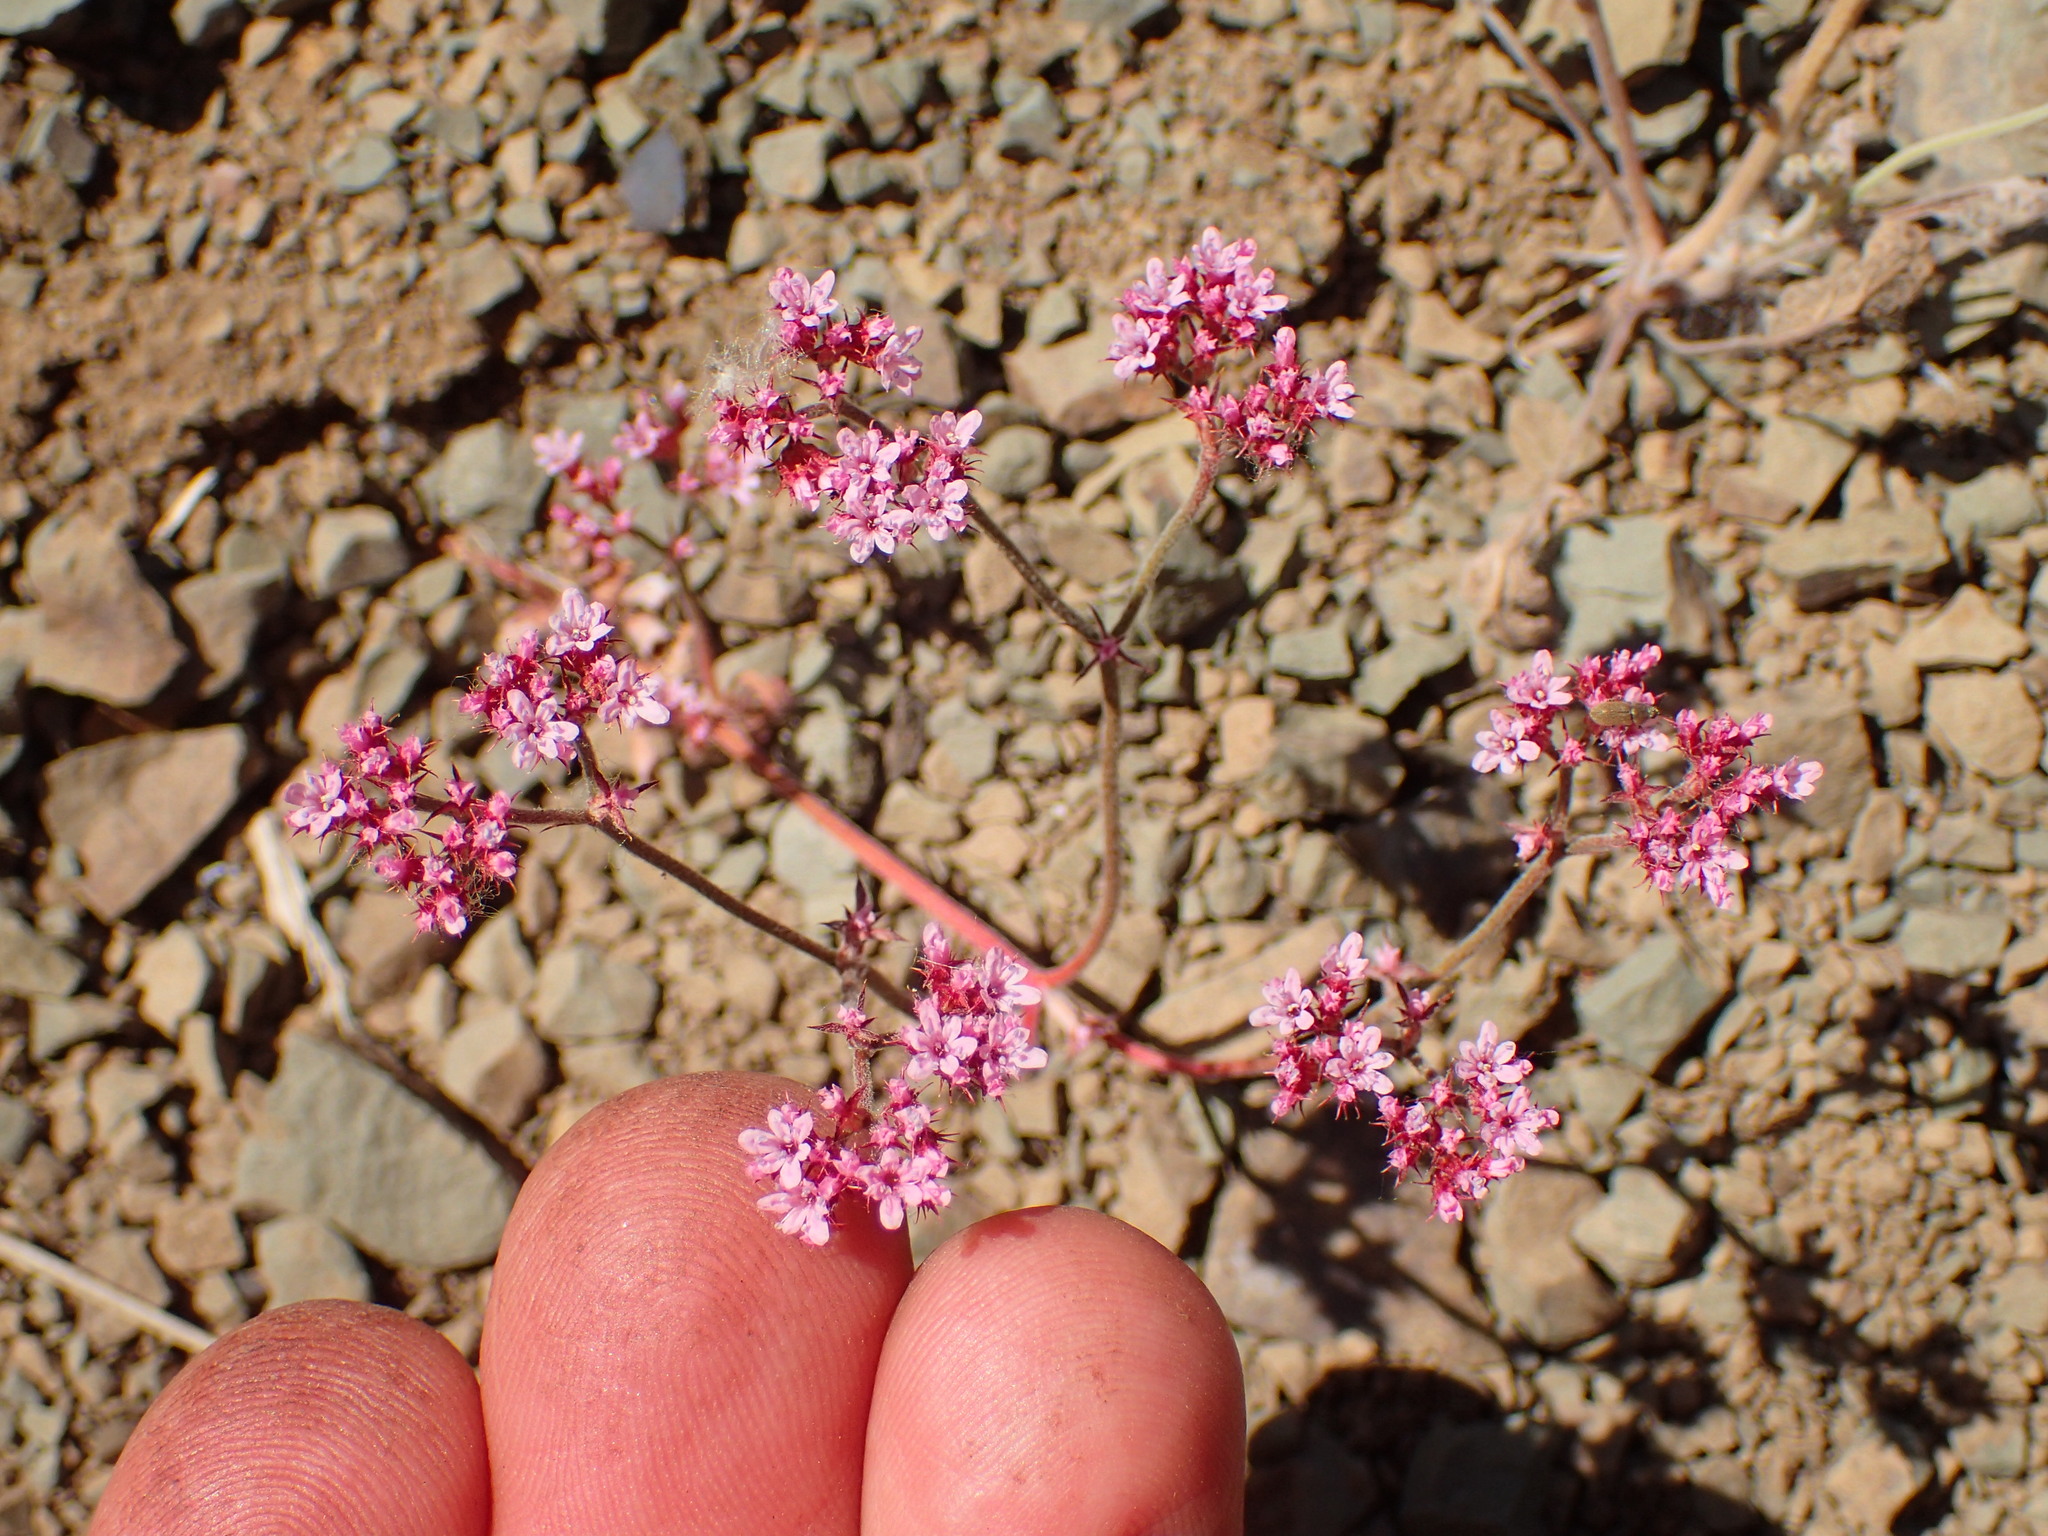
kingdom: Plantae
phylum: Tracheophyta
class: Magnoliopsida
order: Caryophyllales
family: Polygonaceae
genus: Chorizanthe
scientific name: Chorizanthe staticoides
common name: Turkish rugging
